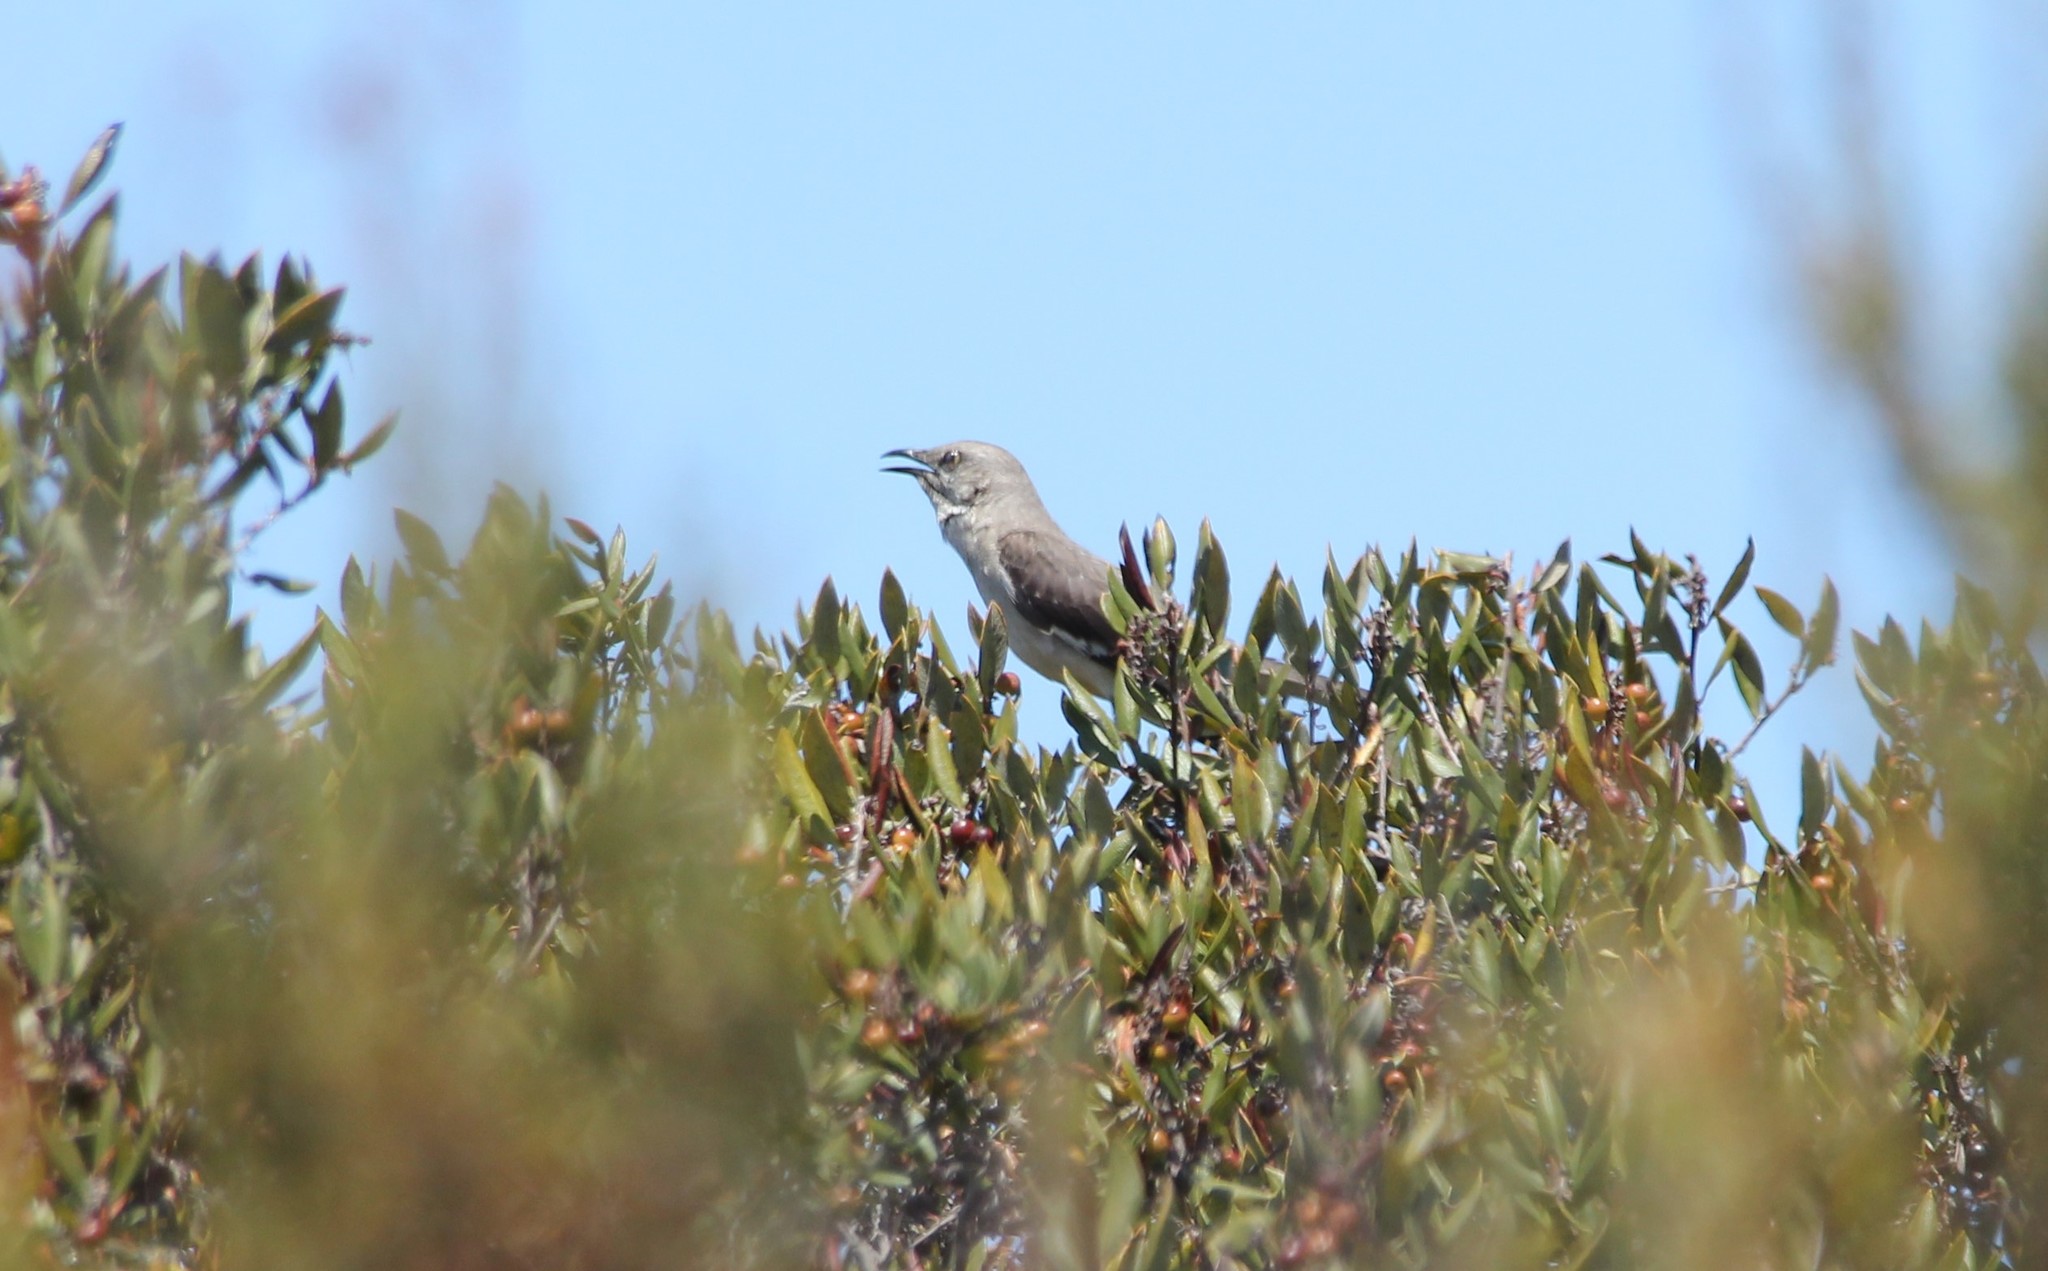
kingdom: Animalia
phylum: Chordata
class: Aves
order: Passeriformes
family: Mimidae
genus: Mimus
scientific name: Mimus polyglottos
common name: Northern mockingbird
